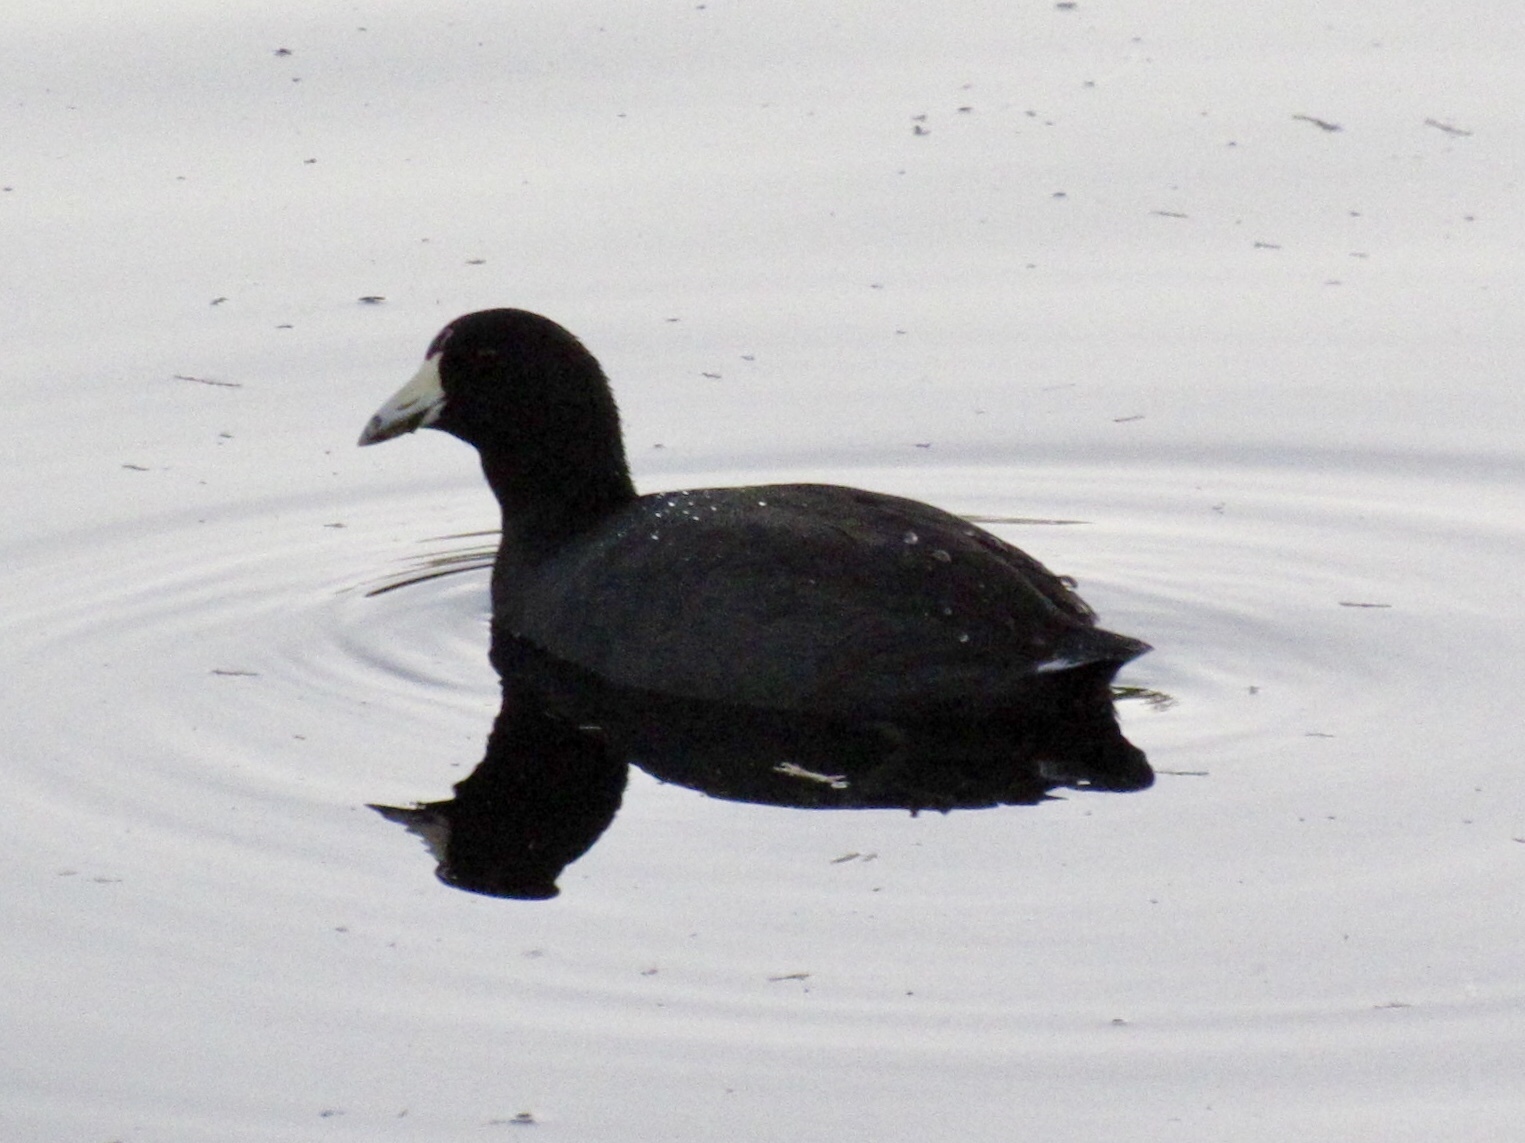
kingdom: Animalia
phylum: Chordata
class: Aves
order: Gruiformes
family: Rallidae
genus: Fulica
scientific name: Fulica americana
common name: American coot
